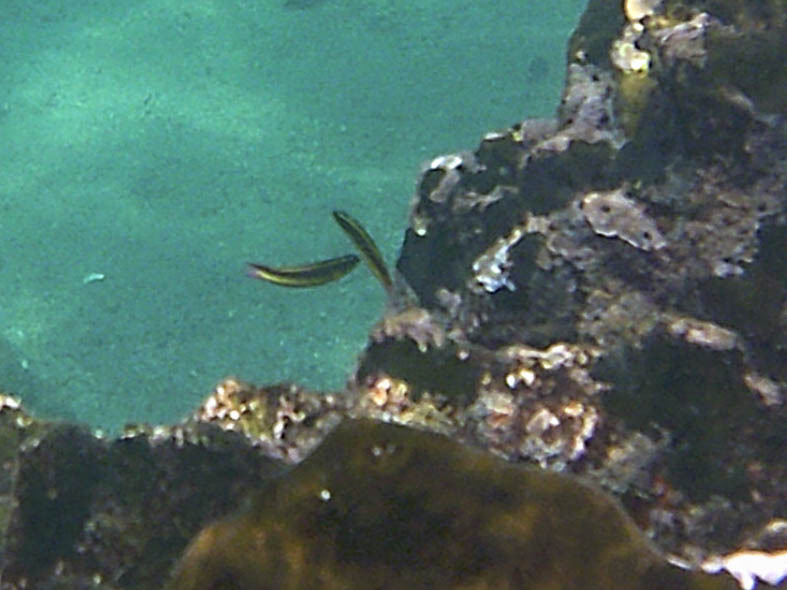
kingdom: Animalia
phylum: Chordata
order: Perciformes
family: Labridae
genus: Thalassoma
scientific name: Thalassoma lucasanum
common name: Cortez rainbow wrasse
